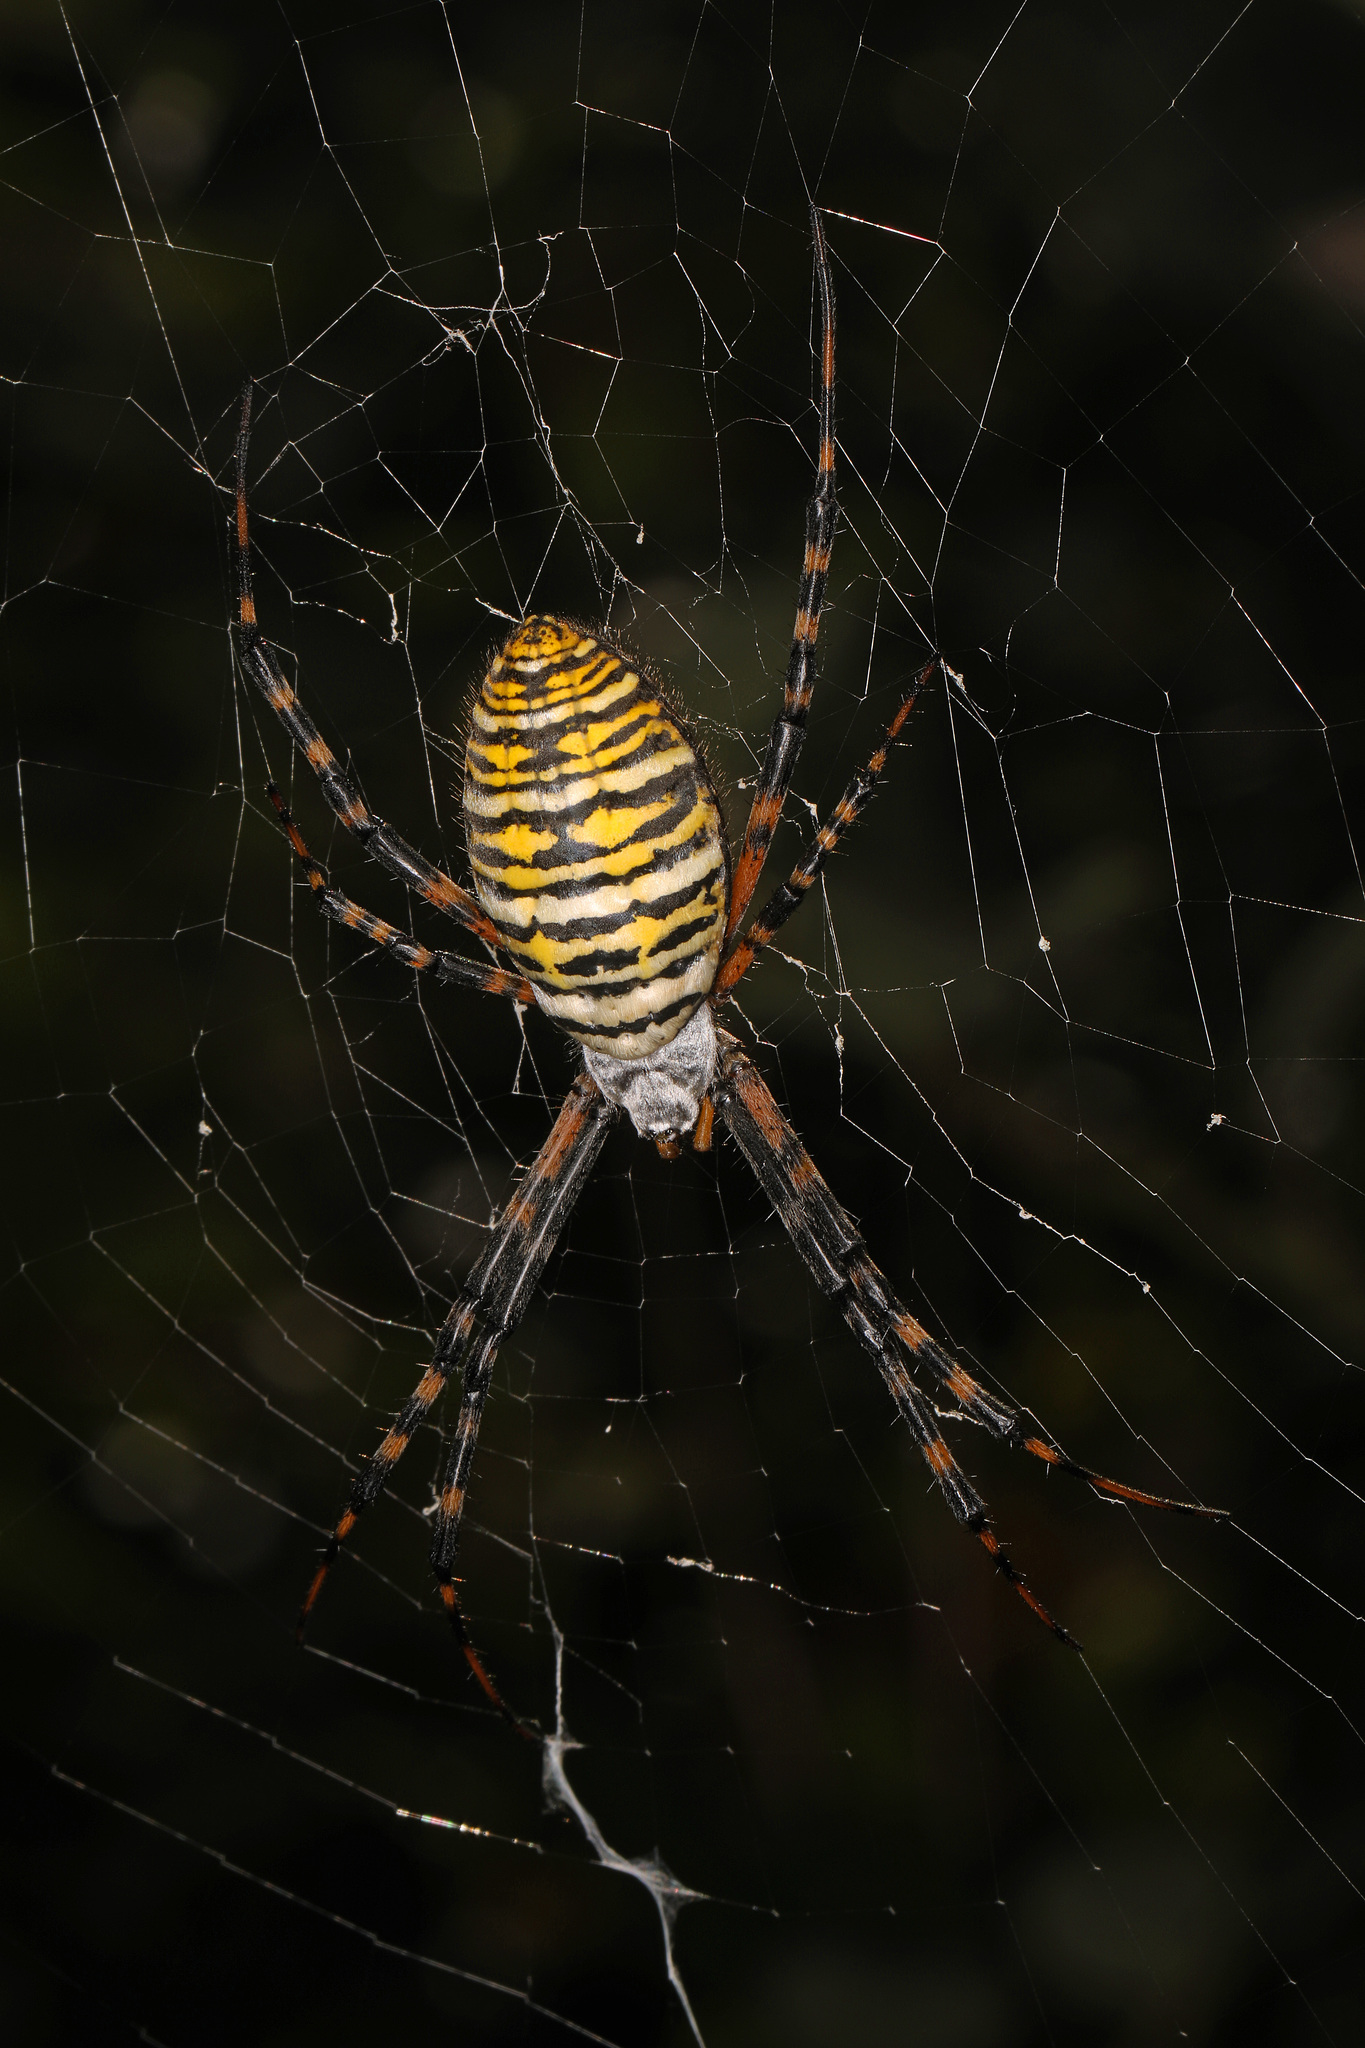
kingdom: Animalia
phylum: Arthropoda
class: Arachnida
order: Araneae
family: Araneidae
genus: Argiope
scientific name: Argiope trifasciata
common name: Banded garden spider
